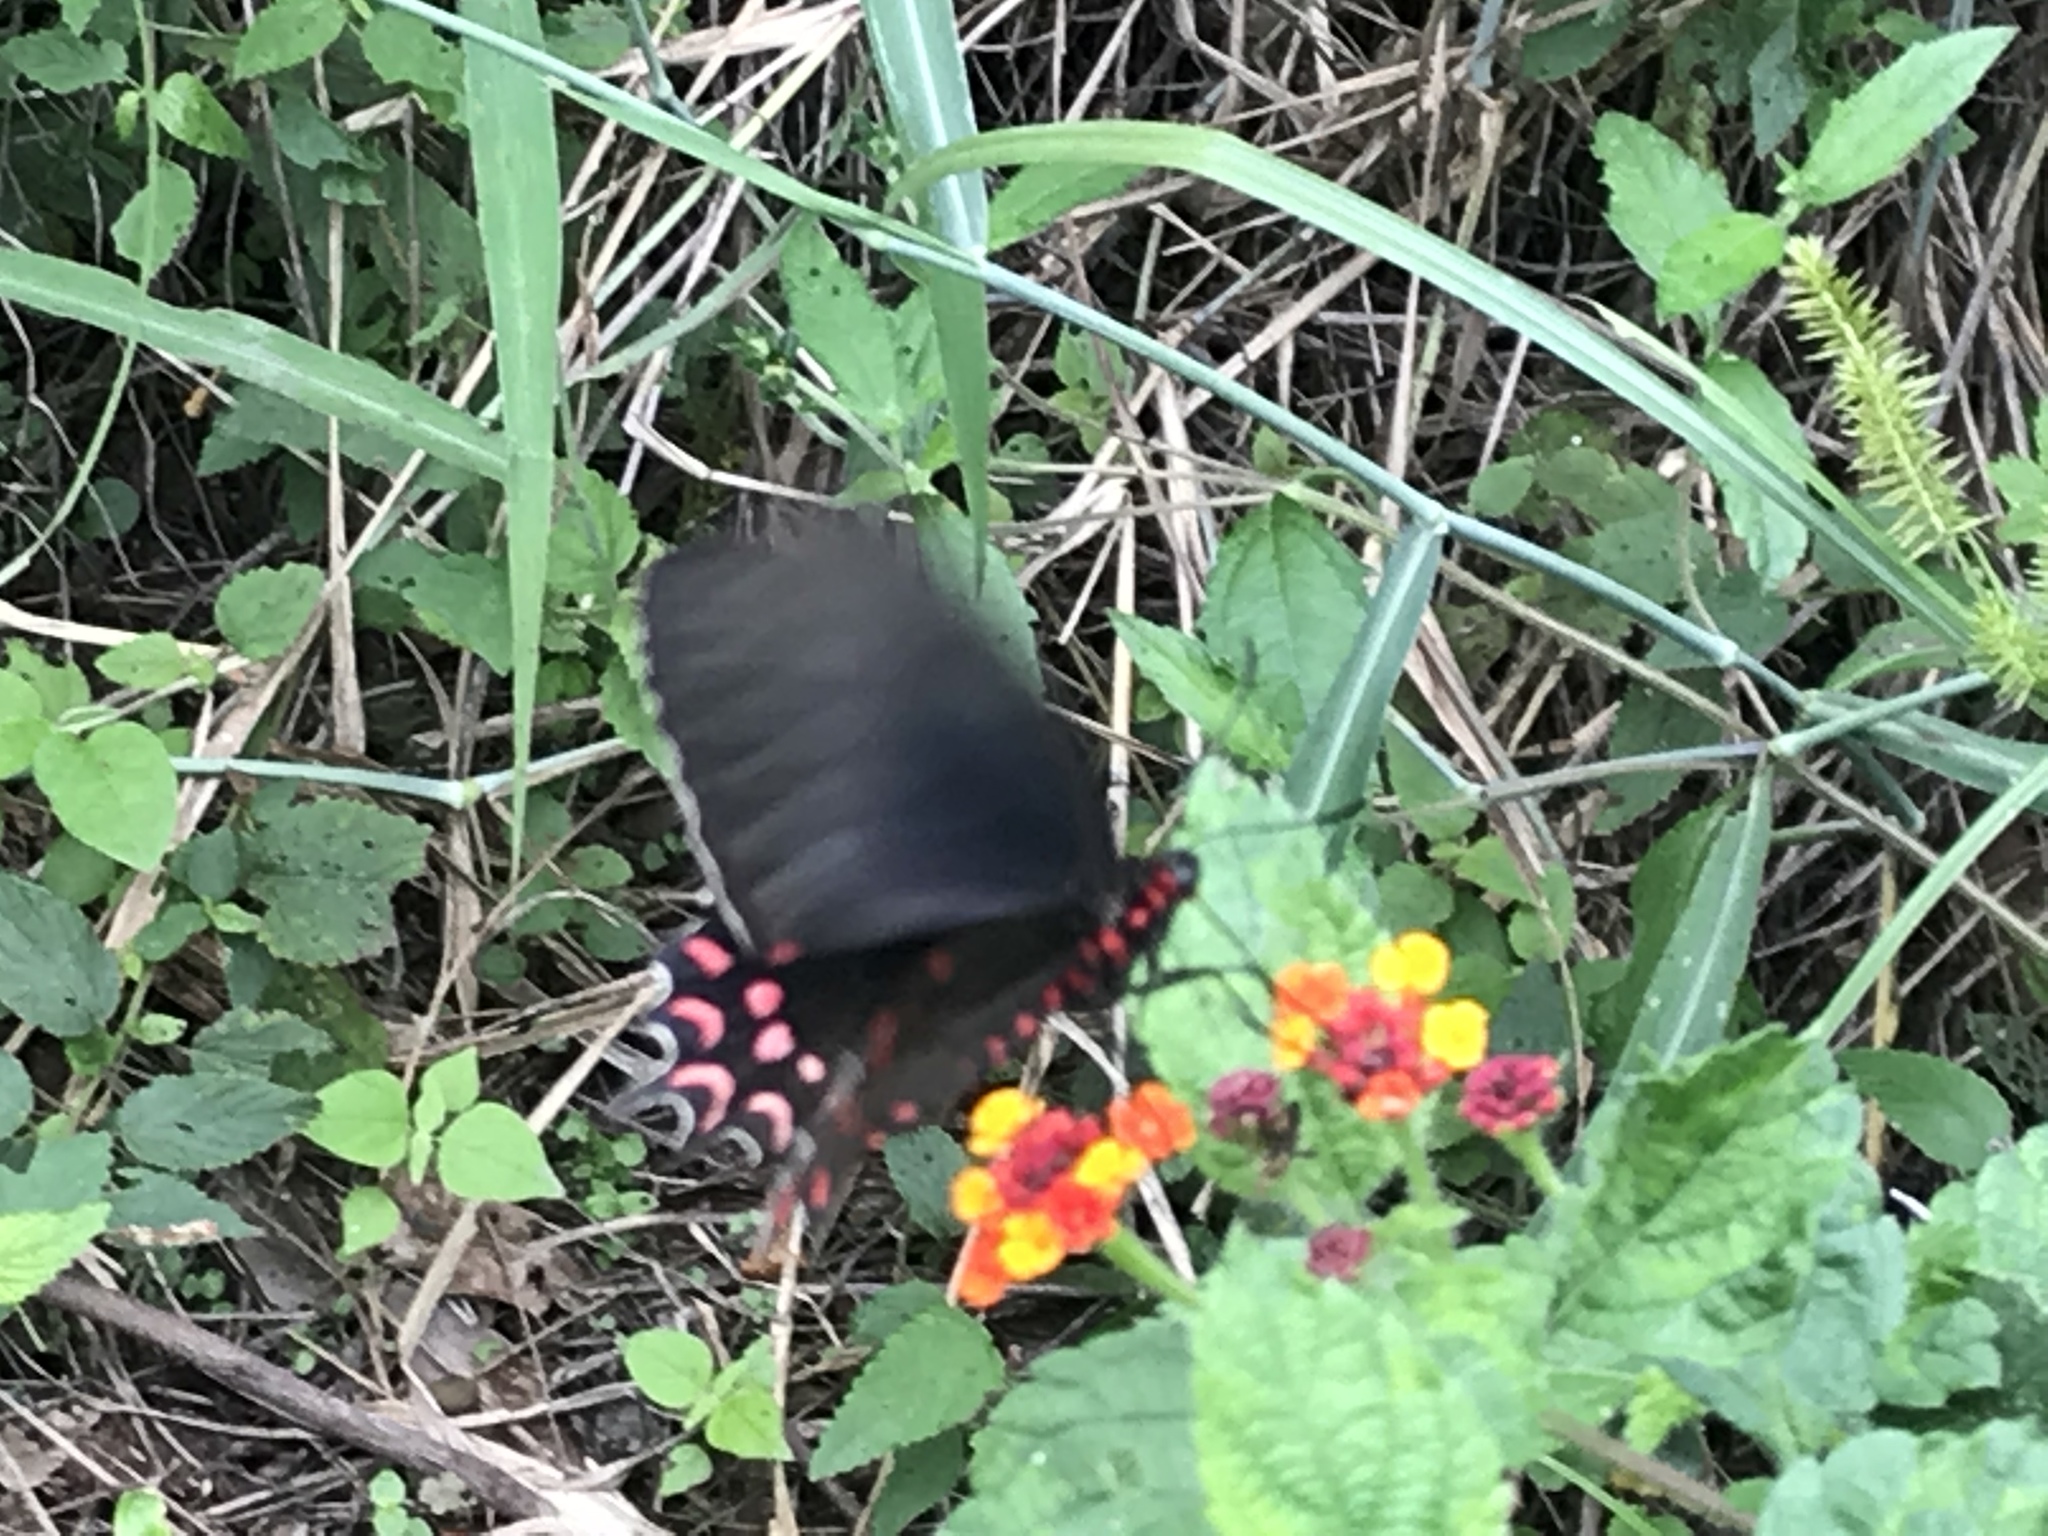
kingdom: Animalia
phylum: Arthropoda
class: Insecta
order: Lepidoptera
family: Papilionidae
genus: Parides
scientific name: Parides photinus
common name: Pink-spotted cattleheart
